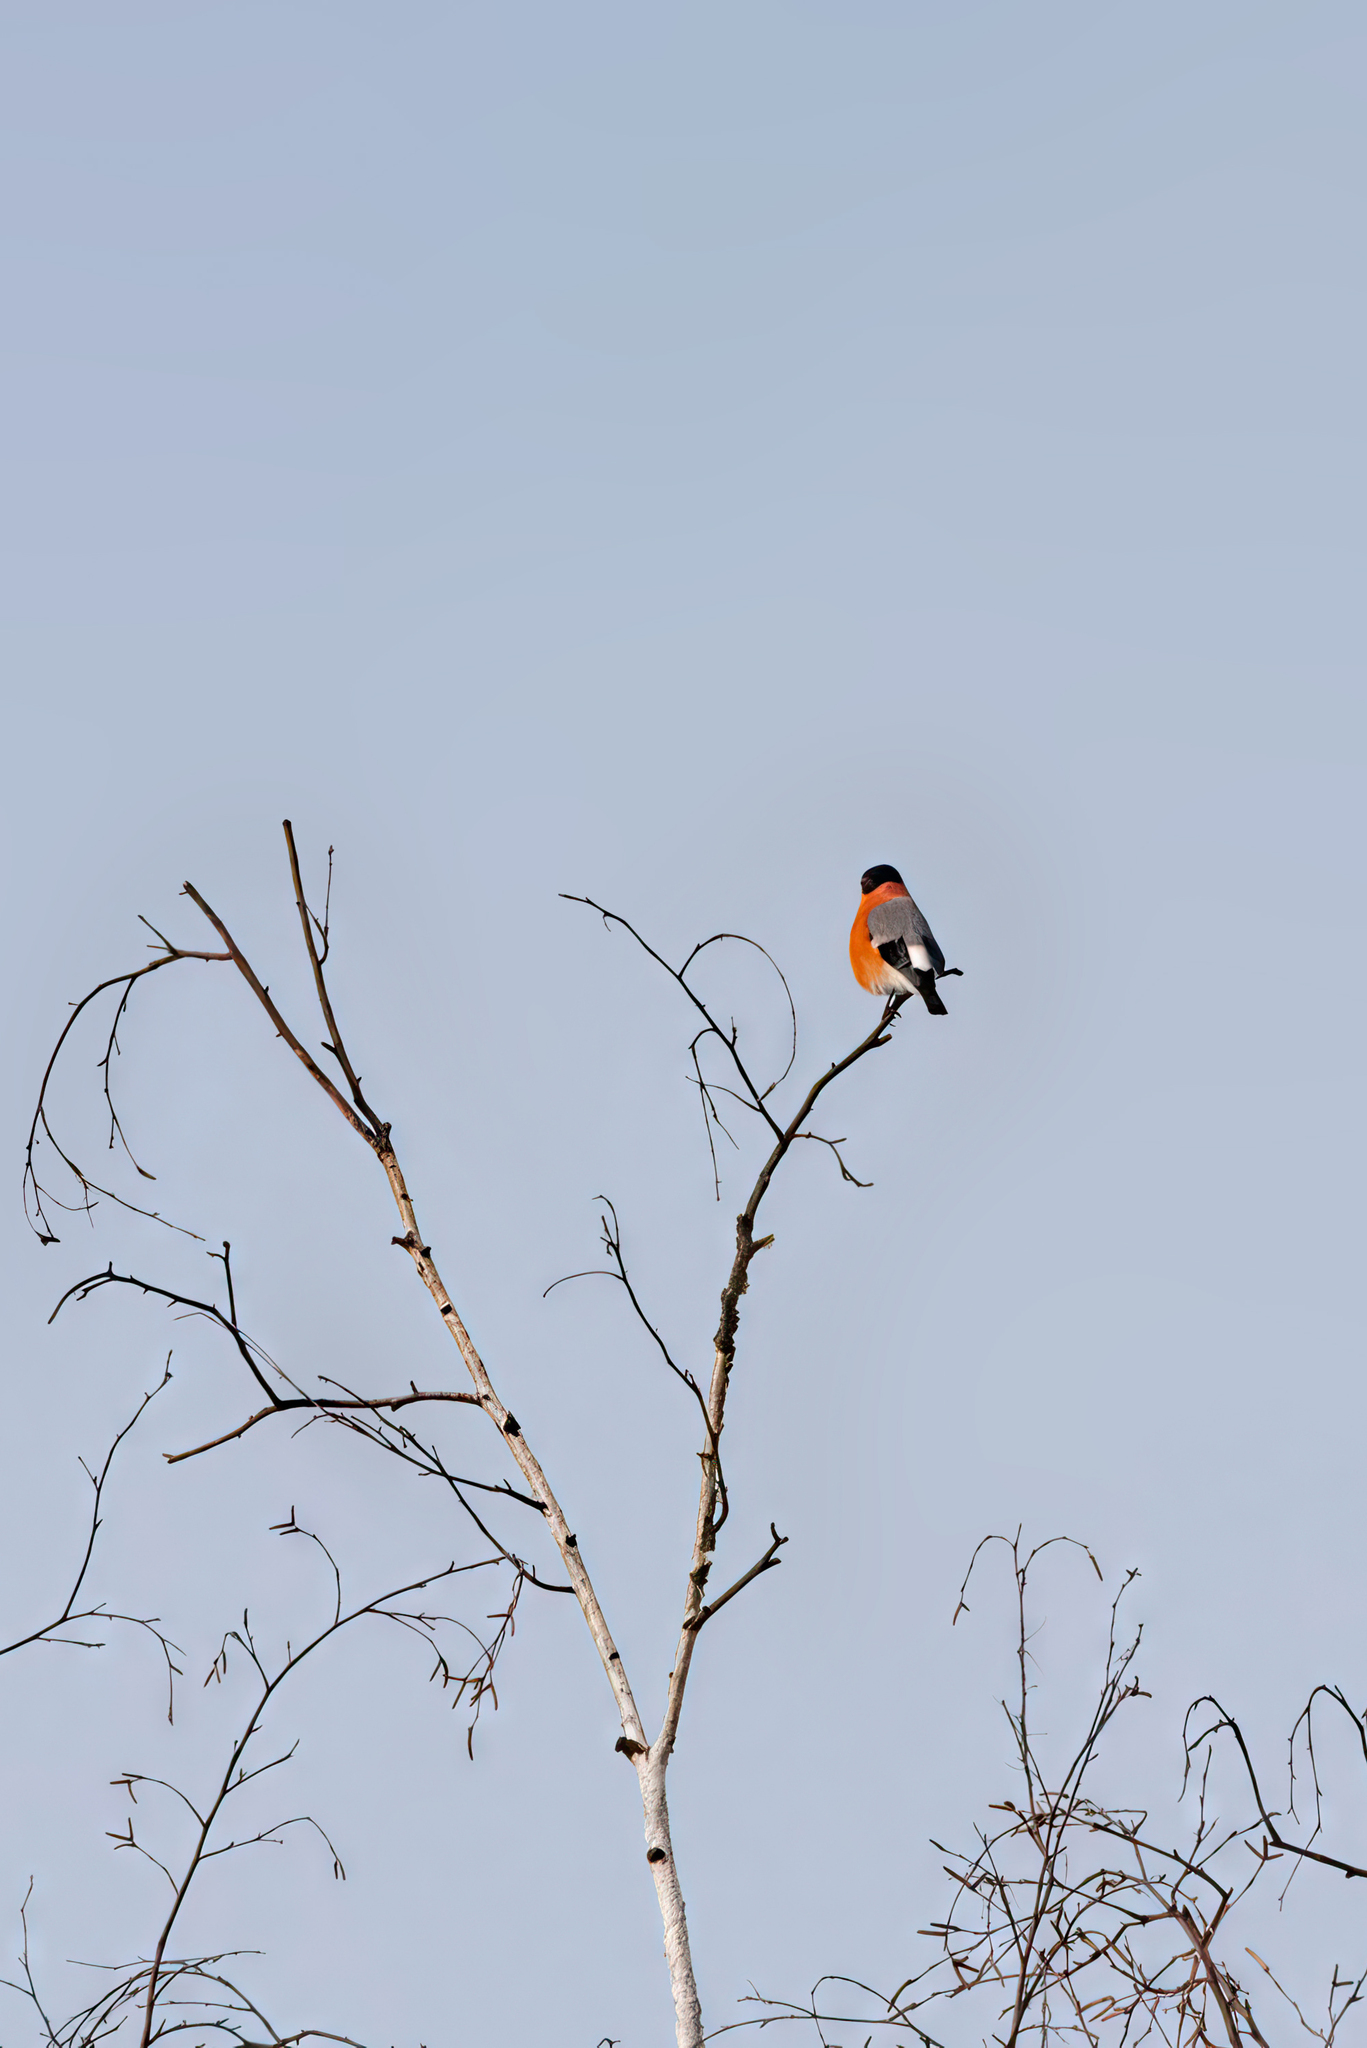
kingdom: Animalia
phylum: Chordata
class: Aves
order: Passeriformes
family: Fringillidae
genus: Pyrrhula
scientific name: Pyrrhula pyrrhula
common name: Eurasian bullfinch
